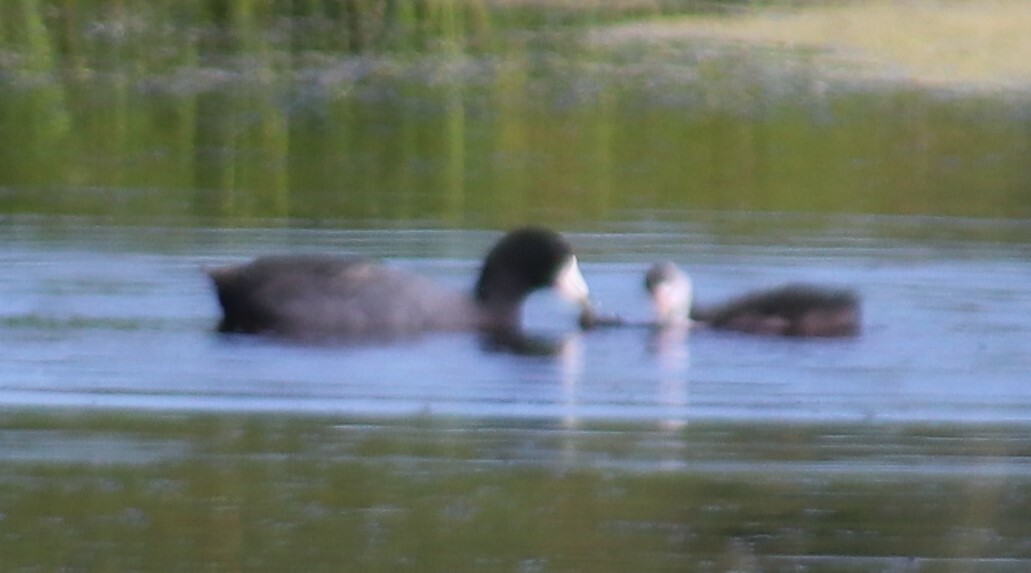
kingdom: Animalia
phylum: Chordata
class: Aves
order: Gruiformes
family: Rallidae
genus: Fulica
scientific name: Fulica americana
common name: American coot
